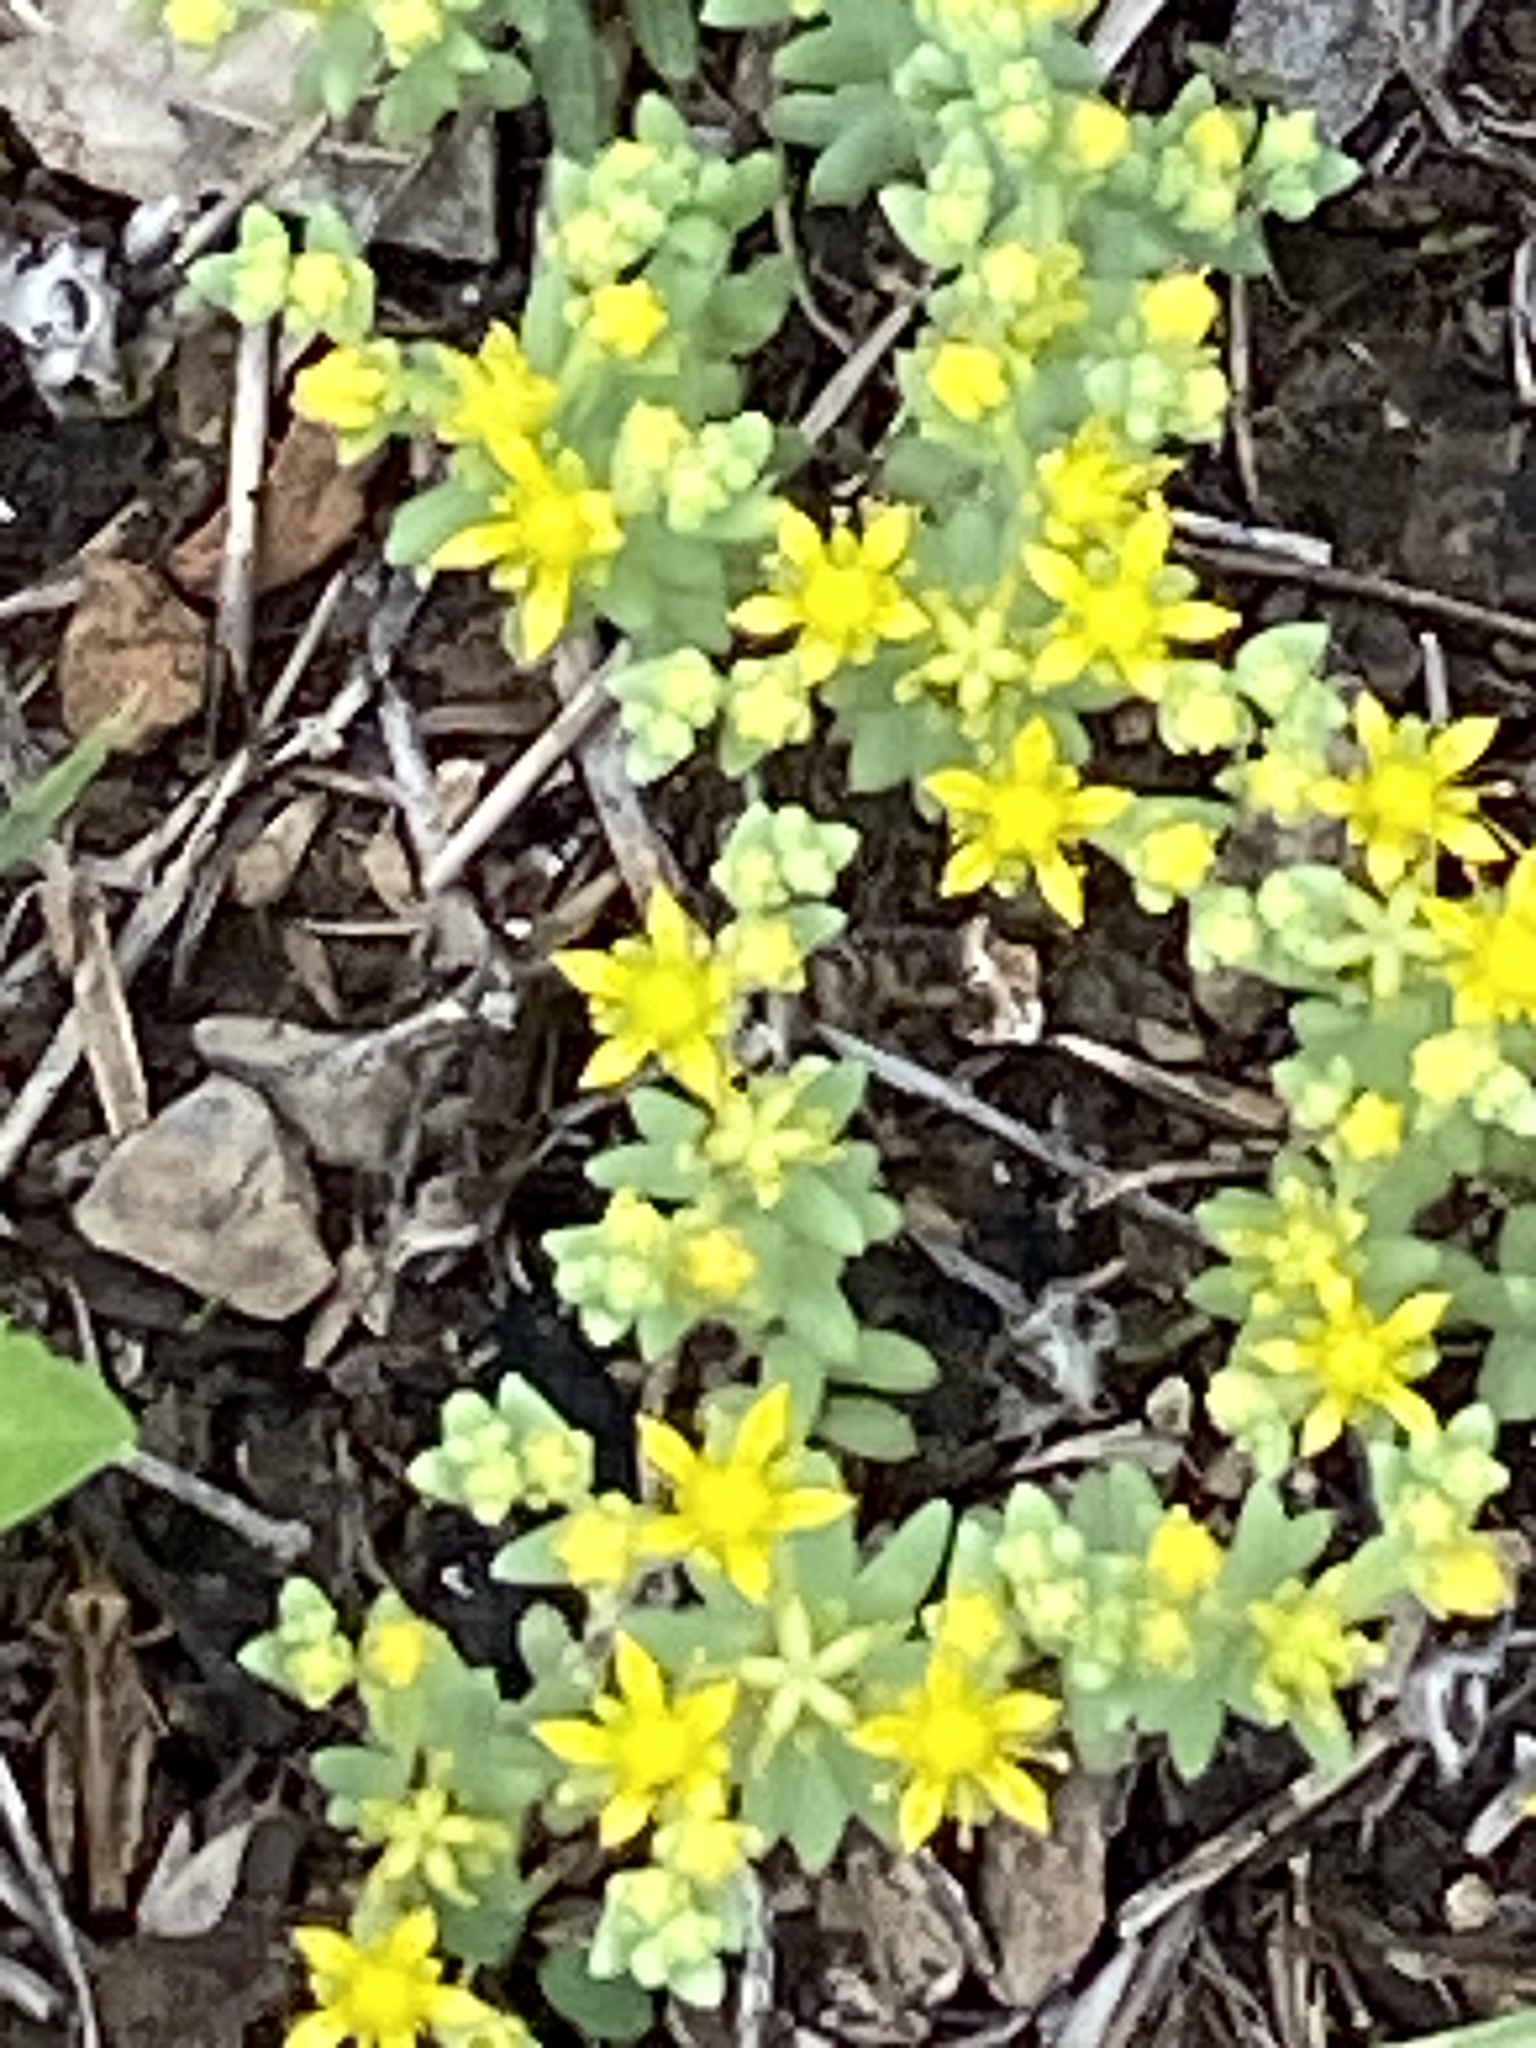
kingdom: Plantae
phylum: Tracheophyta
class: Magnoliopsida
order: Saxifragales
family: Crassulaceae
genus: Sedum
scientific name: Sedum nuttallii
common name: Yellow stonecrop
